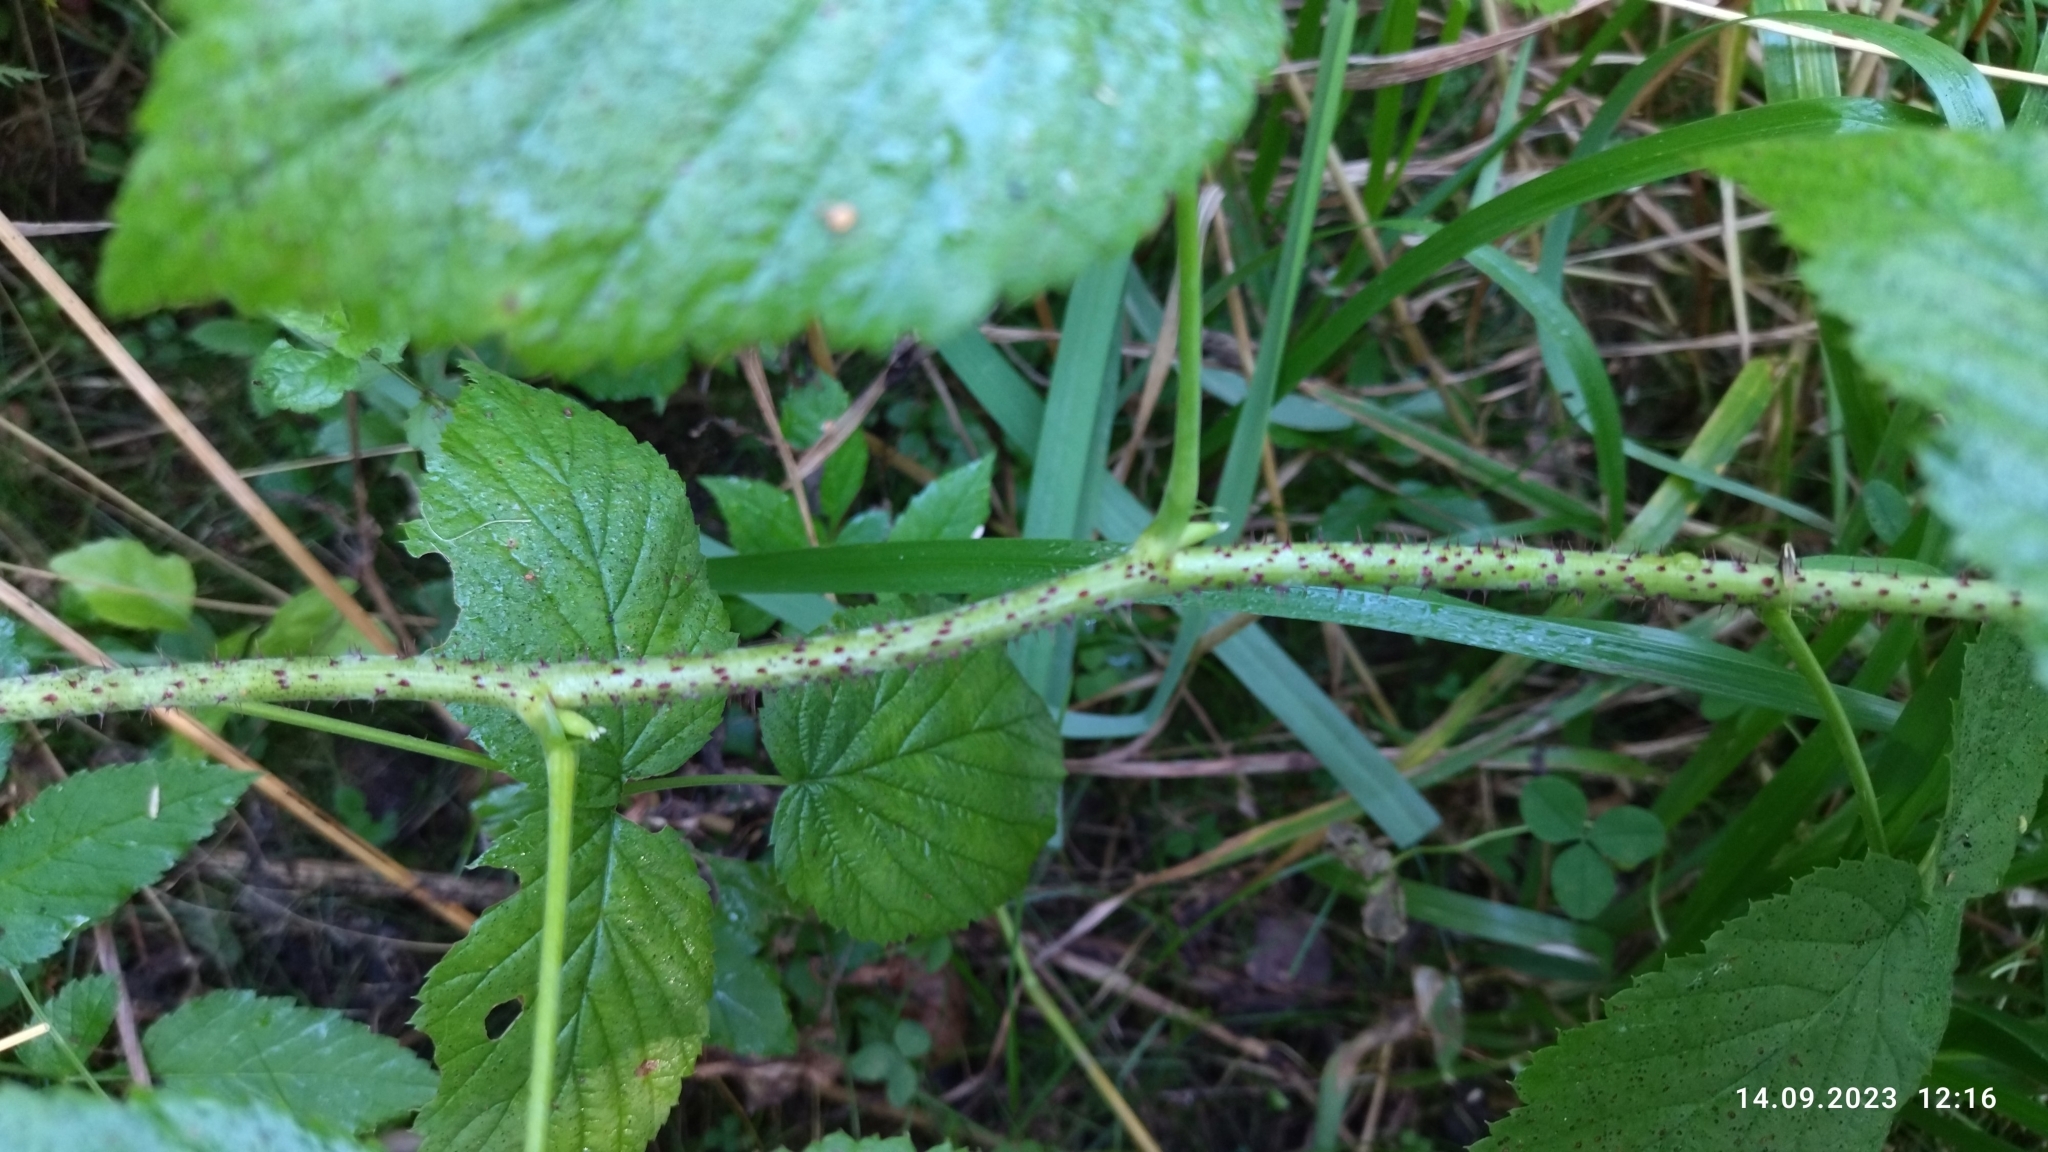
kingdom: Plantae
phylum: Tracheophyta
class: Magnoliopsida
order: Rosales
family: Rosaceae
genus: Rubus
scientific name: Rubus idaeus
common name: Raspberry
